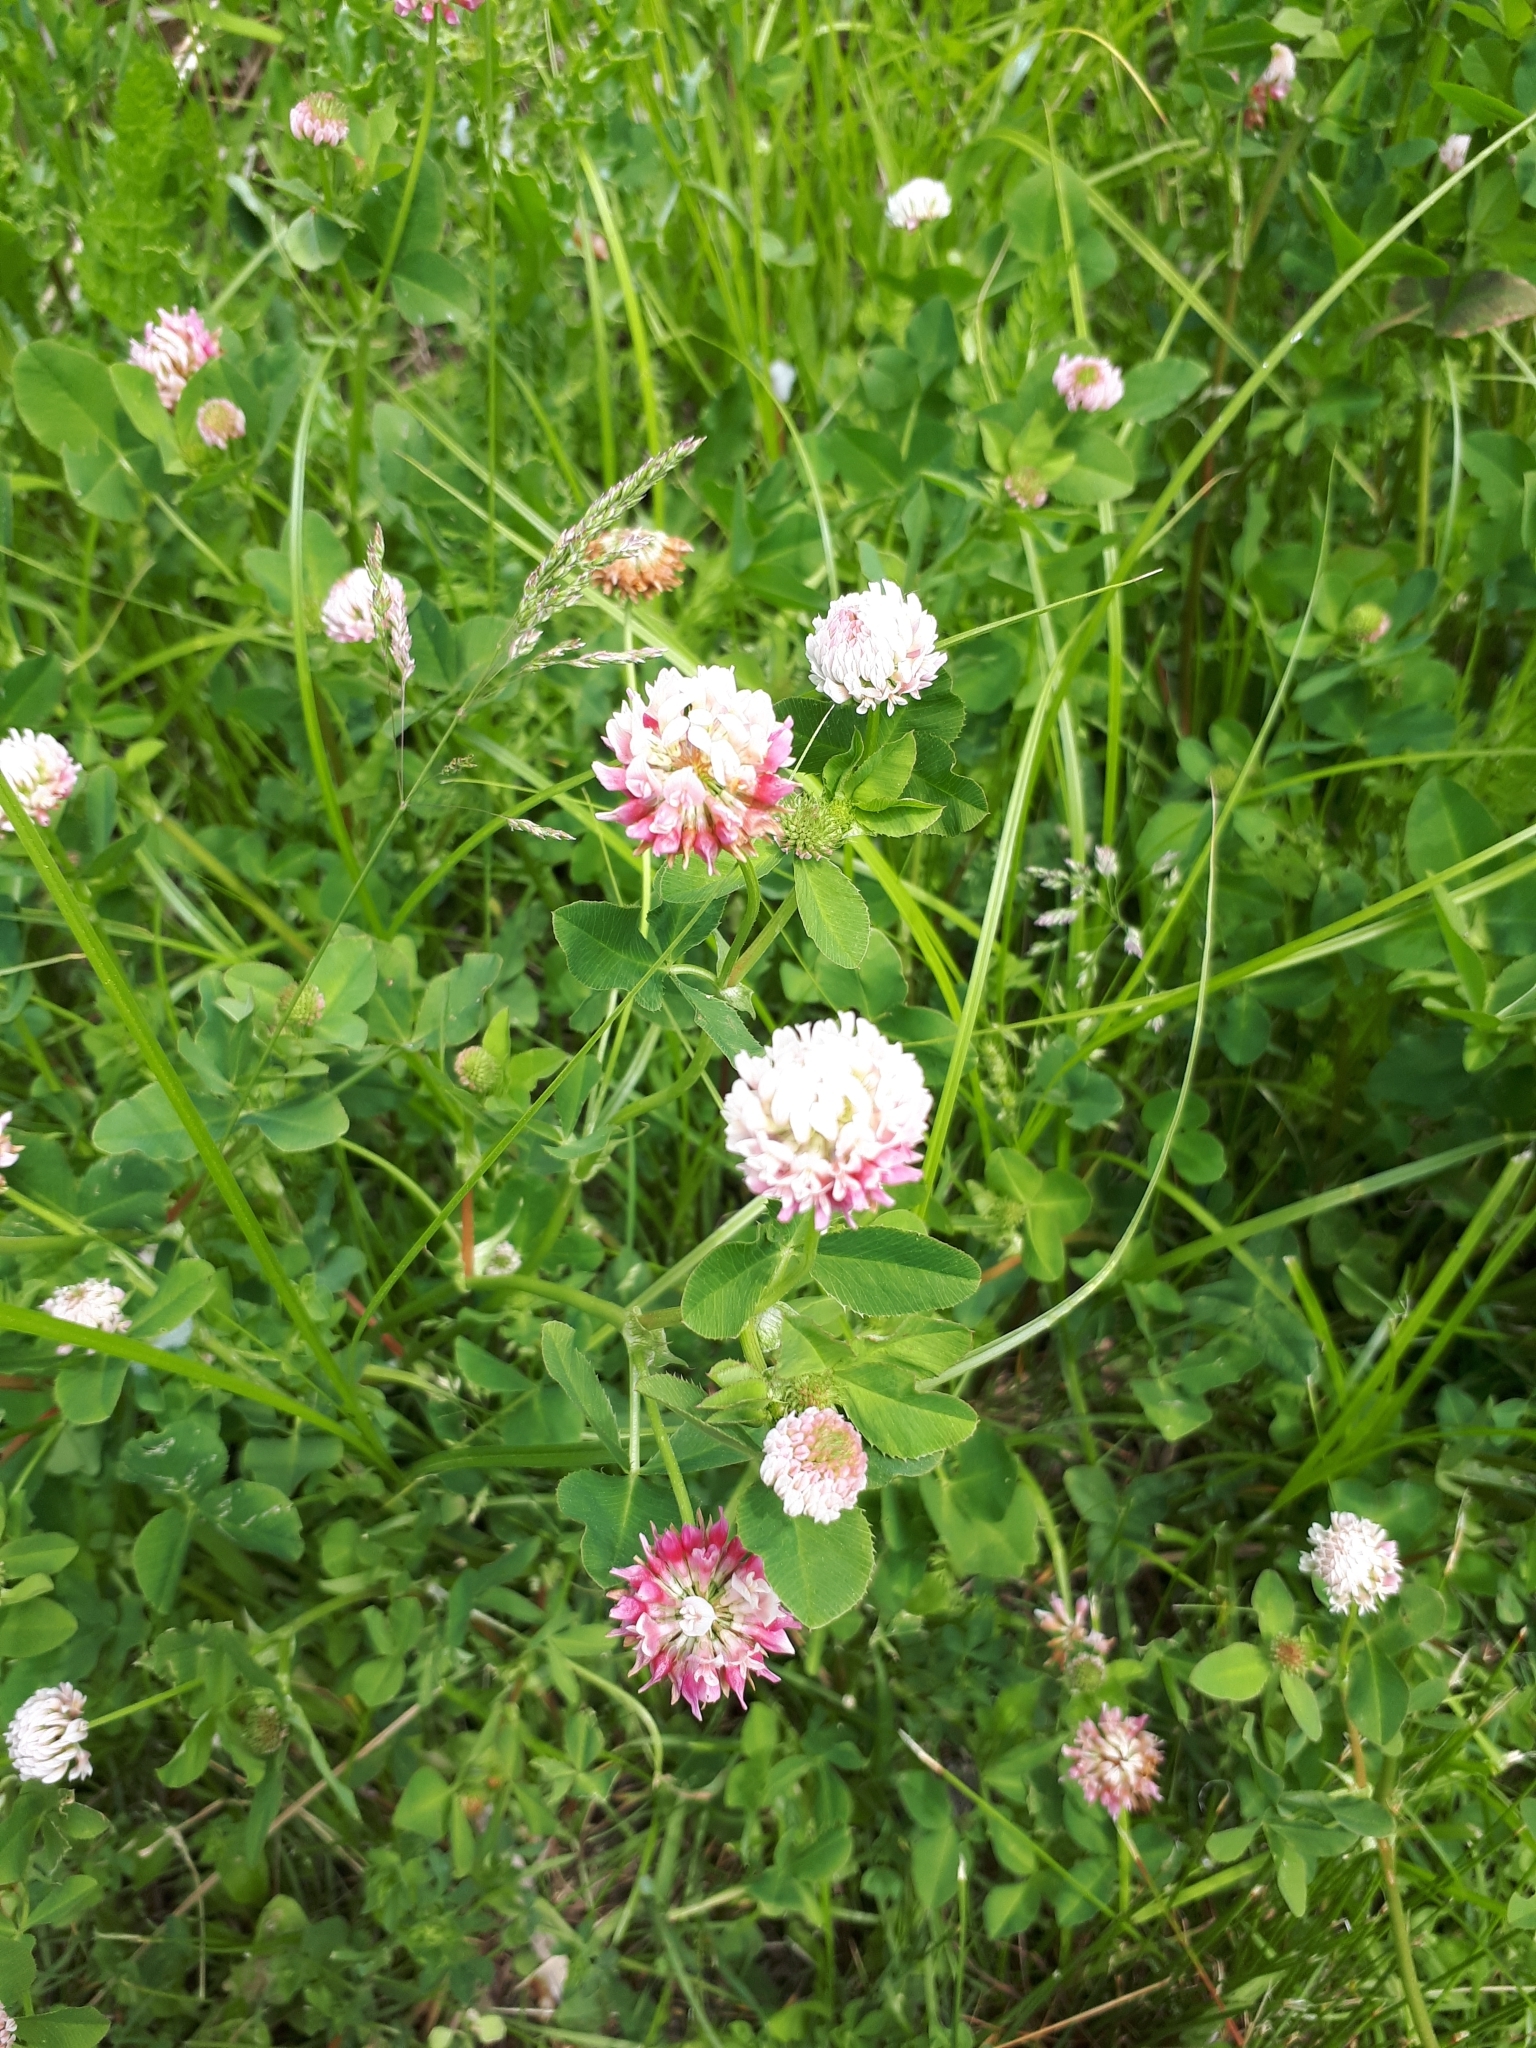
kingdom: Plantae
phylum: Tracheophyta
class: Magnoliopsida
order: Fabales
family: Fabaceae
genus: Trifolium
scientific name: Trifolium hybridum
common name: Alsike clover
